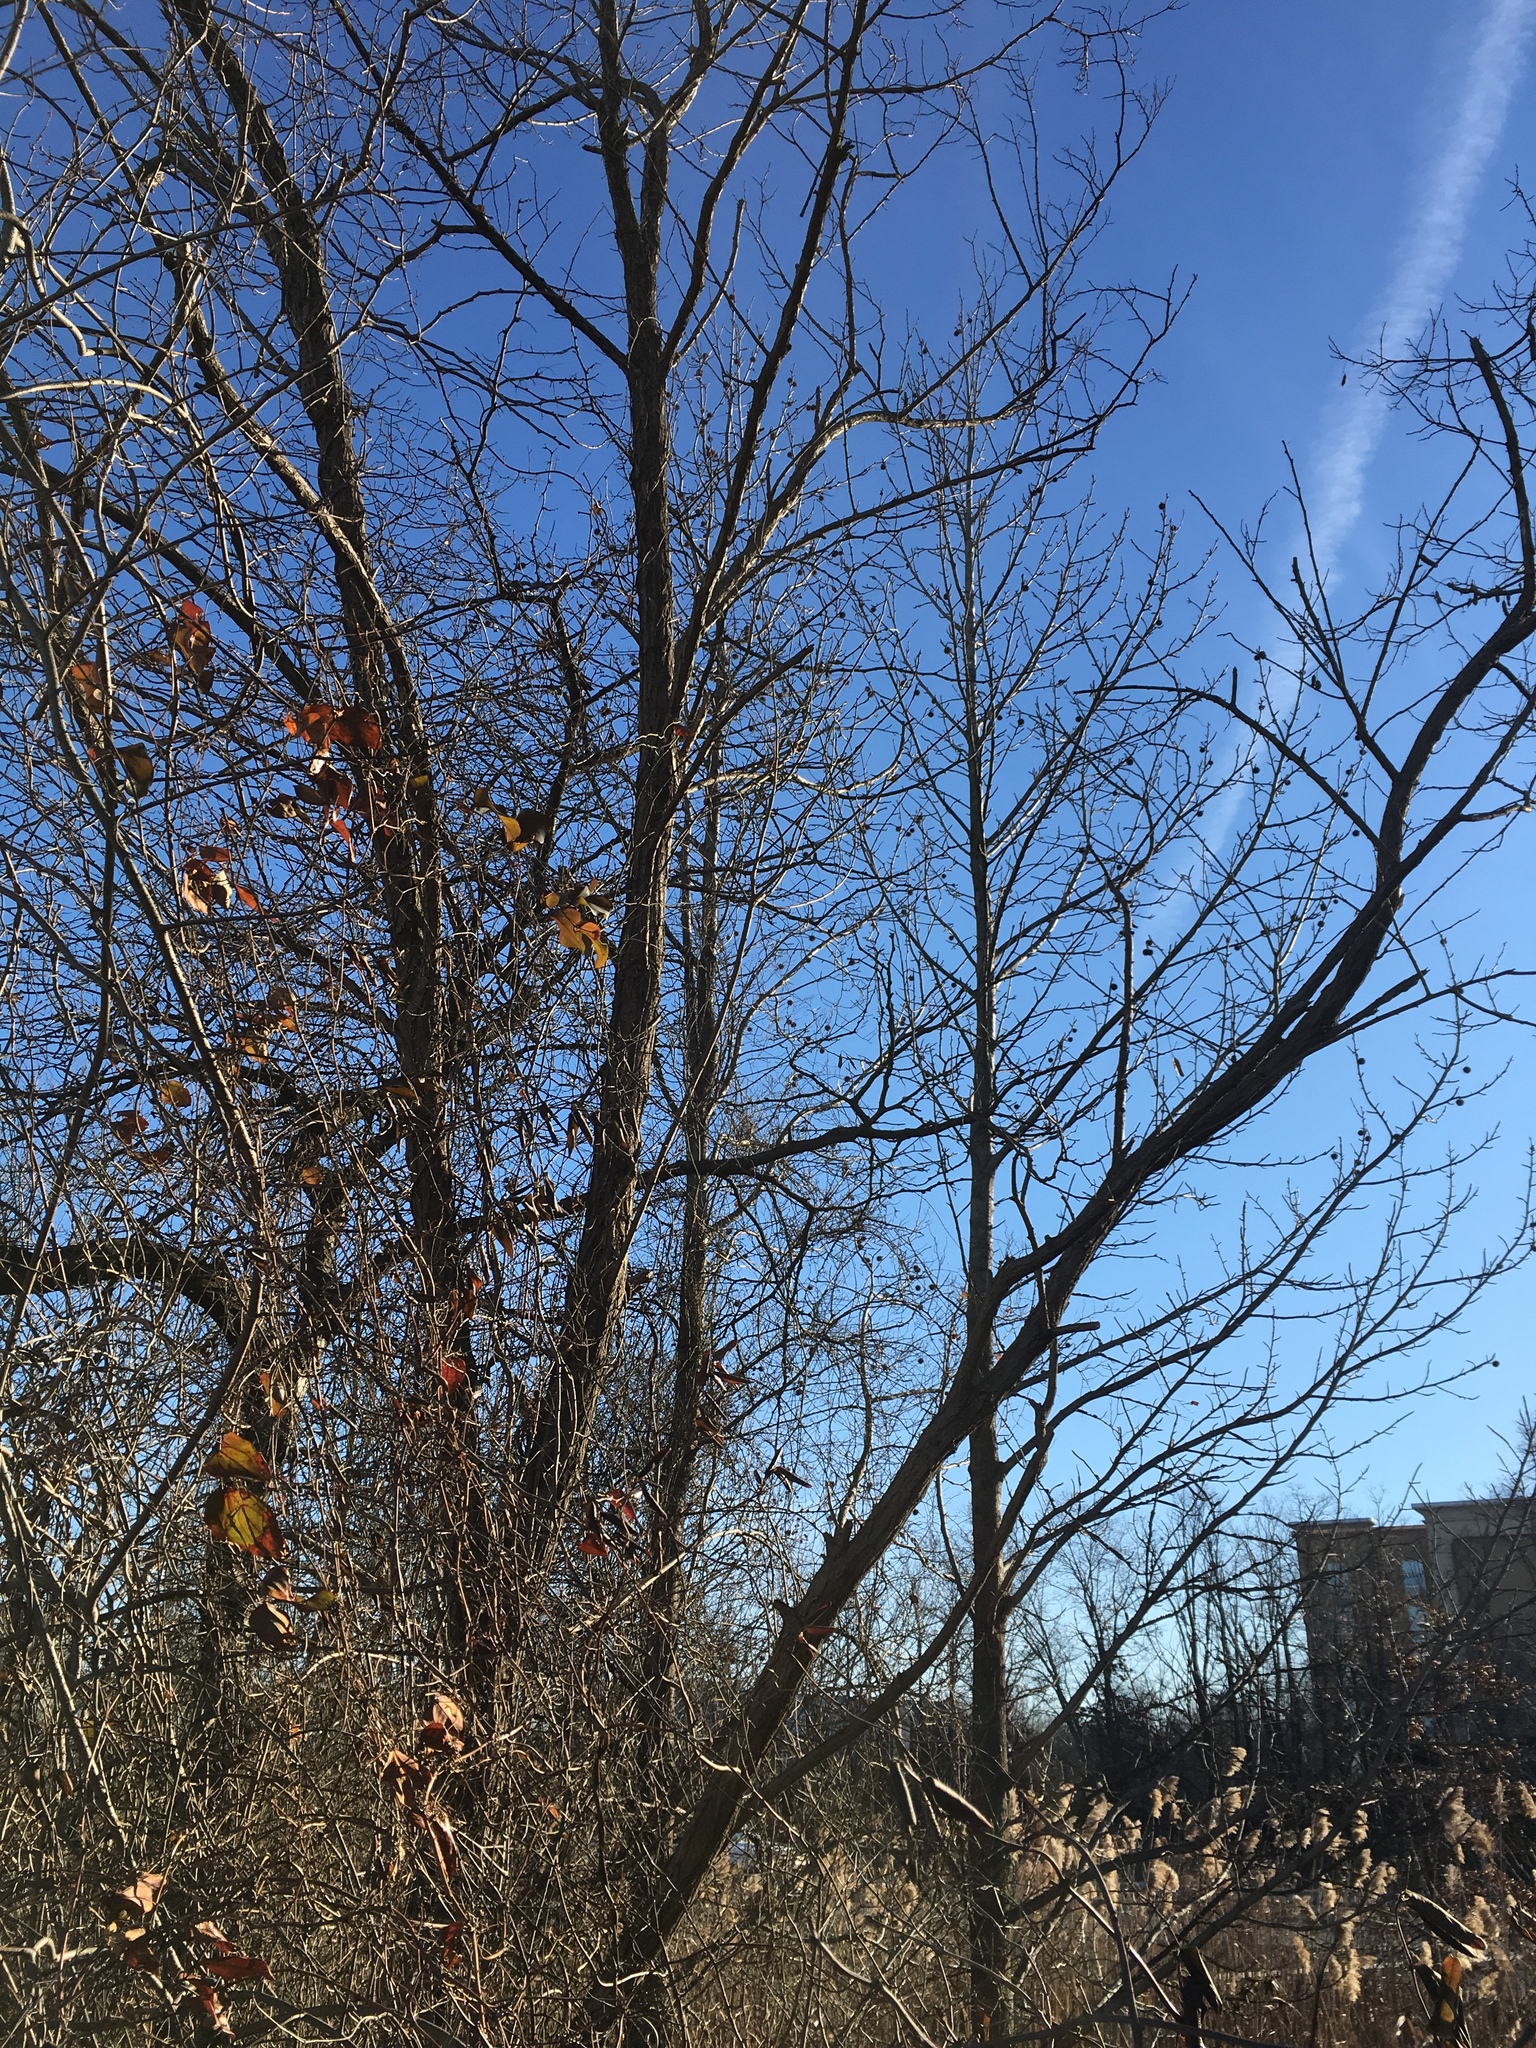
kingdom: Plantae
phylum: Tracheophyta
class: Magnoliopsida
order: Saxifragales
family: Altingiaceae
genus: Liquidambar
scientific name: Liquidambar styraciflua
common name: Sweet gum
